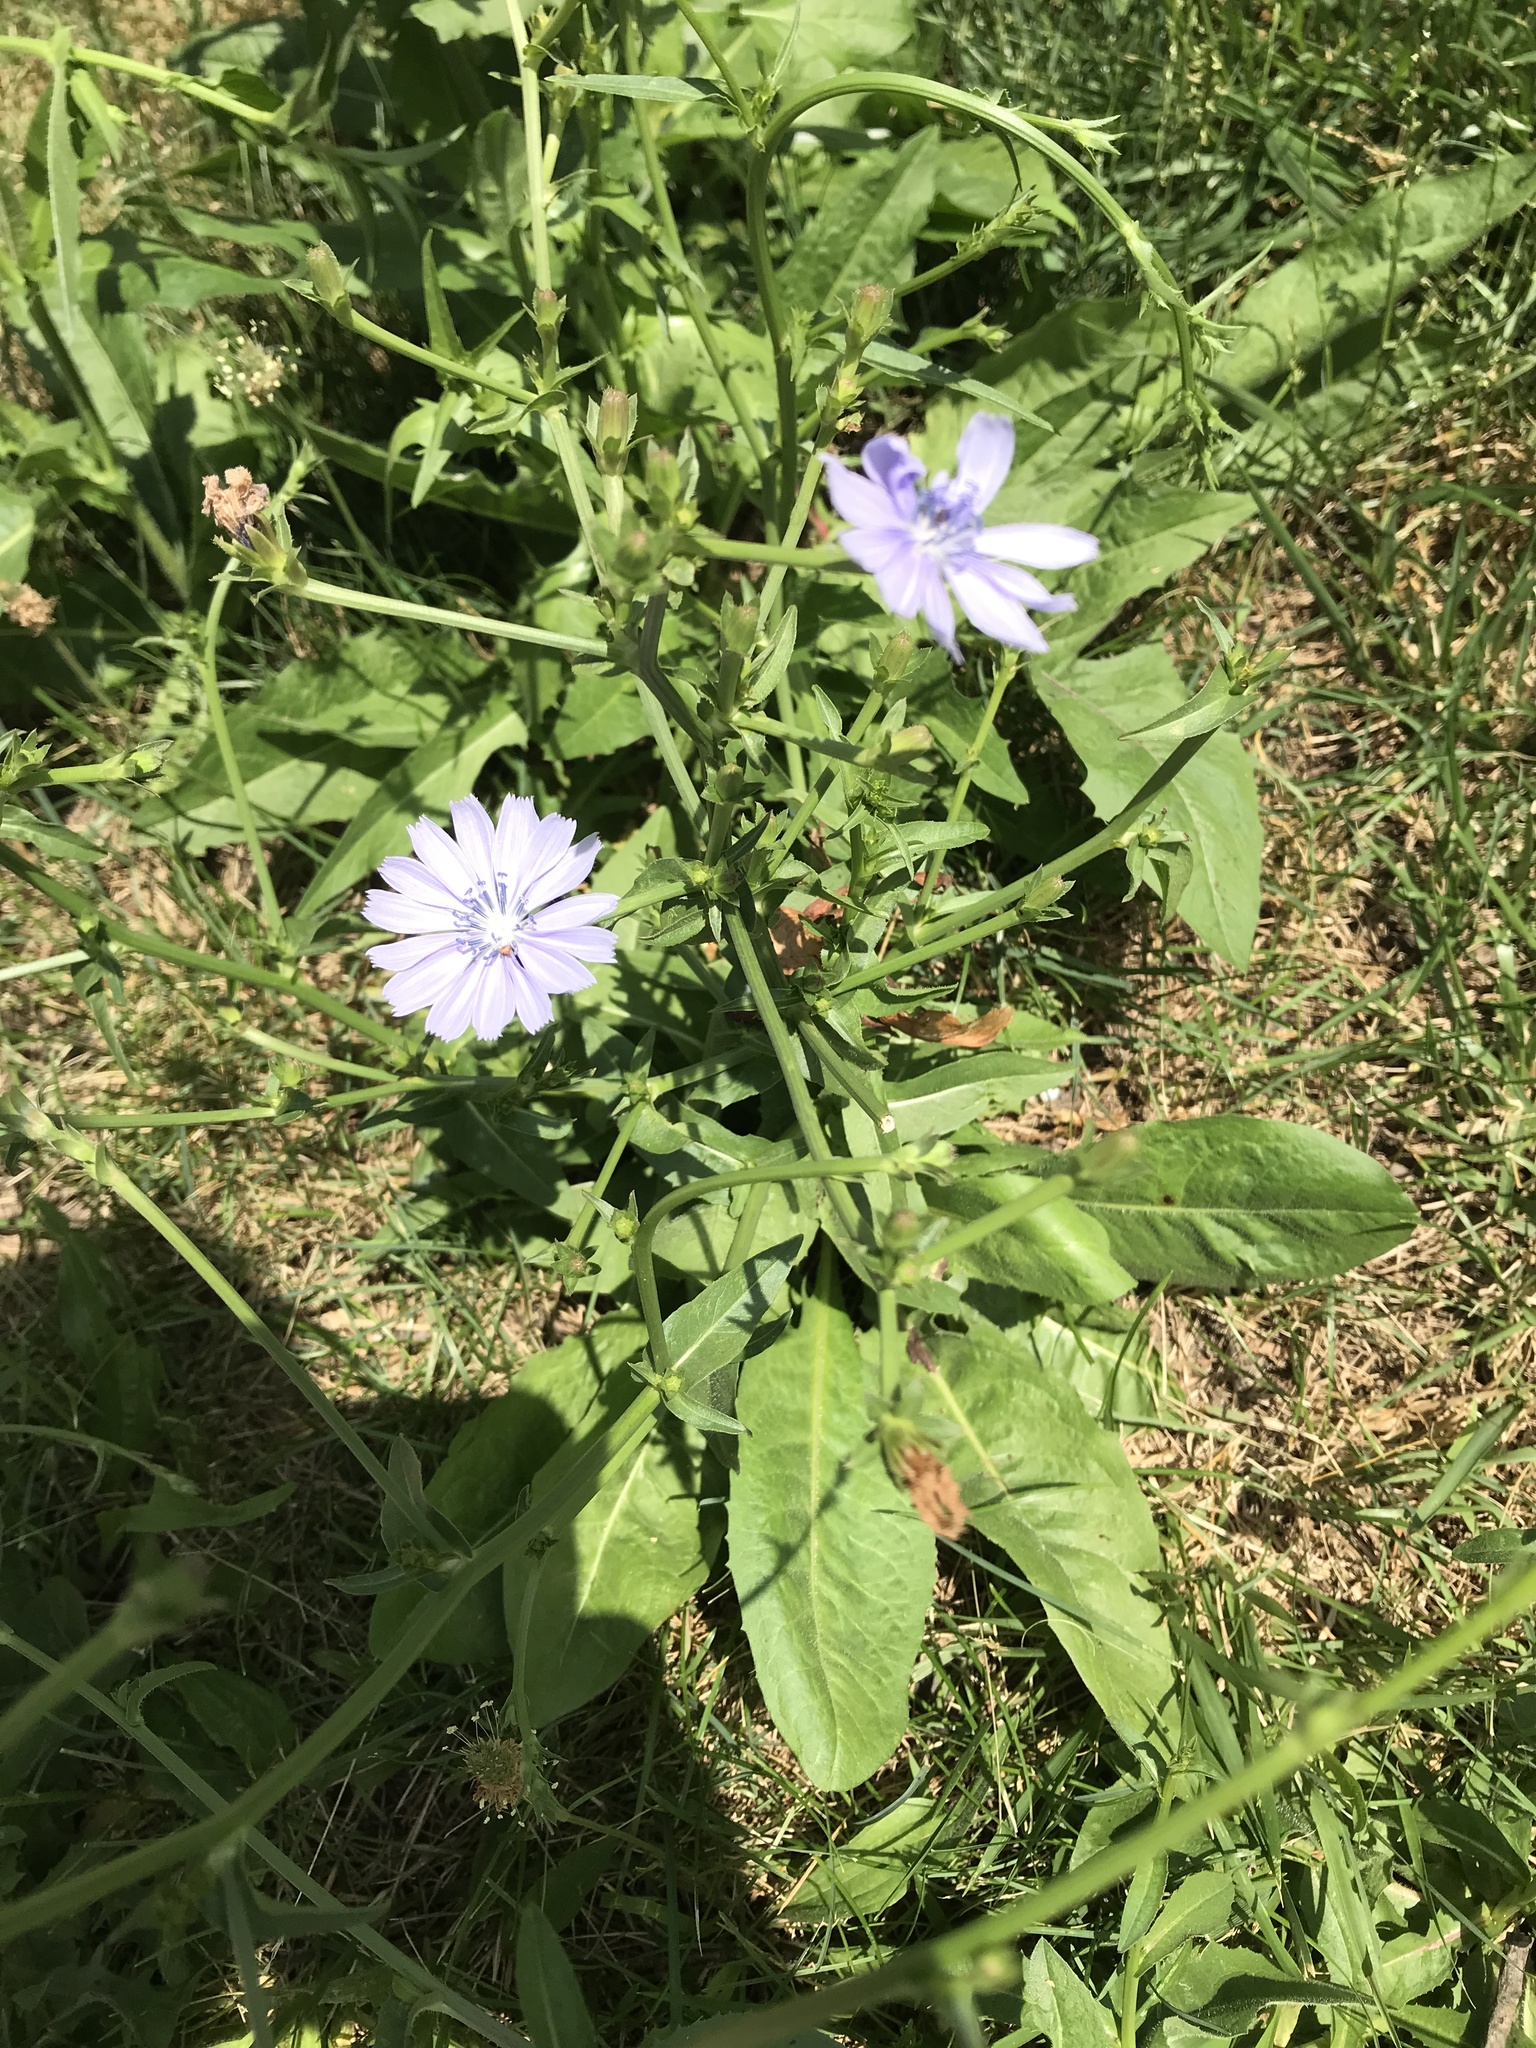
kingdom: Plantae
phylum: Tracheophyta
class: Magnoliopsida
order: Asterales
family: Asteraceae
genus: Cichorium
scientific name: Cichorium intybus
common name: Chicory
